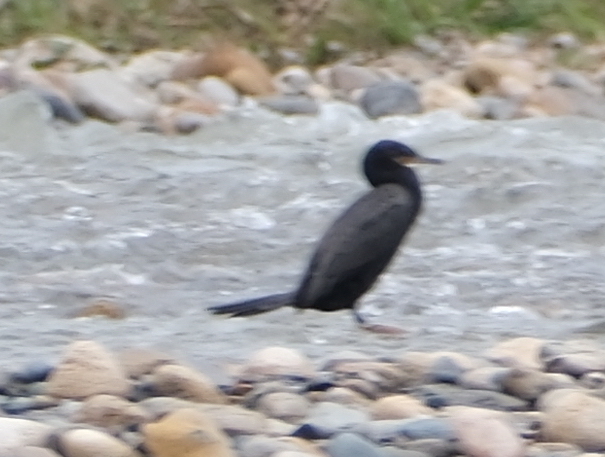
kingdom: Animalia
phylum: Chordata
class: Aves
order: Suliformes
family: Phalacrocoracidae
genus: Phalacrocorax
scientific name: Phalacrocorax brasilianus
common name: Neotropic cormorant
